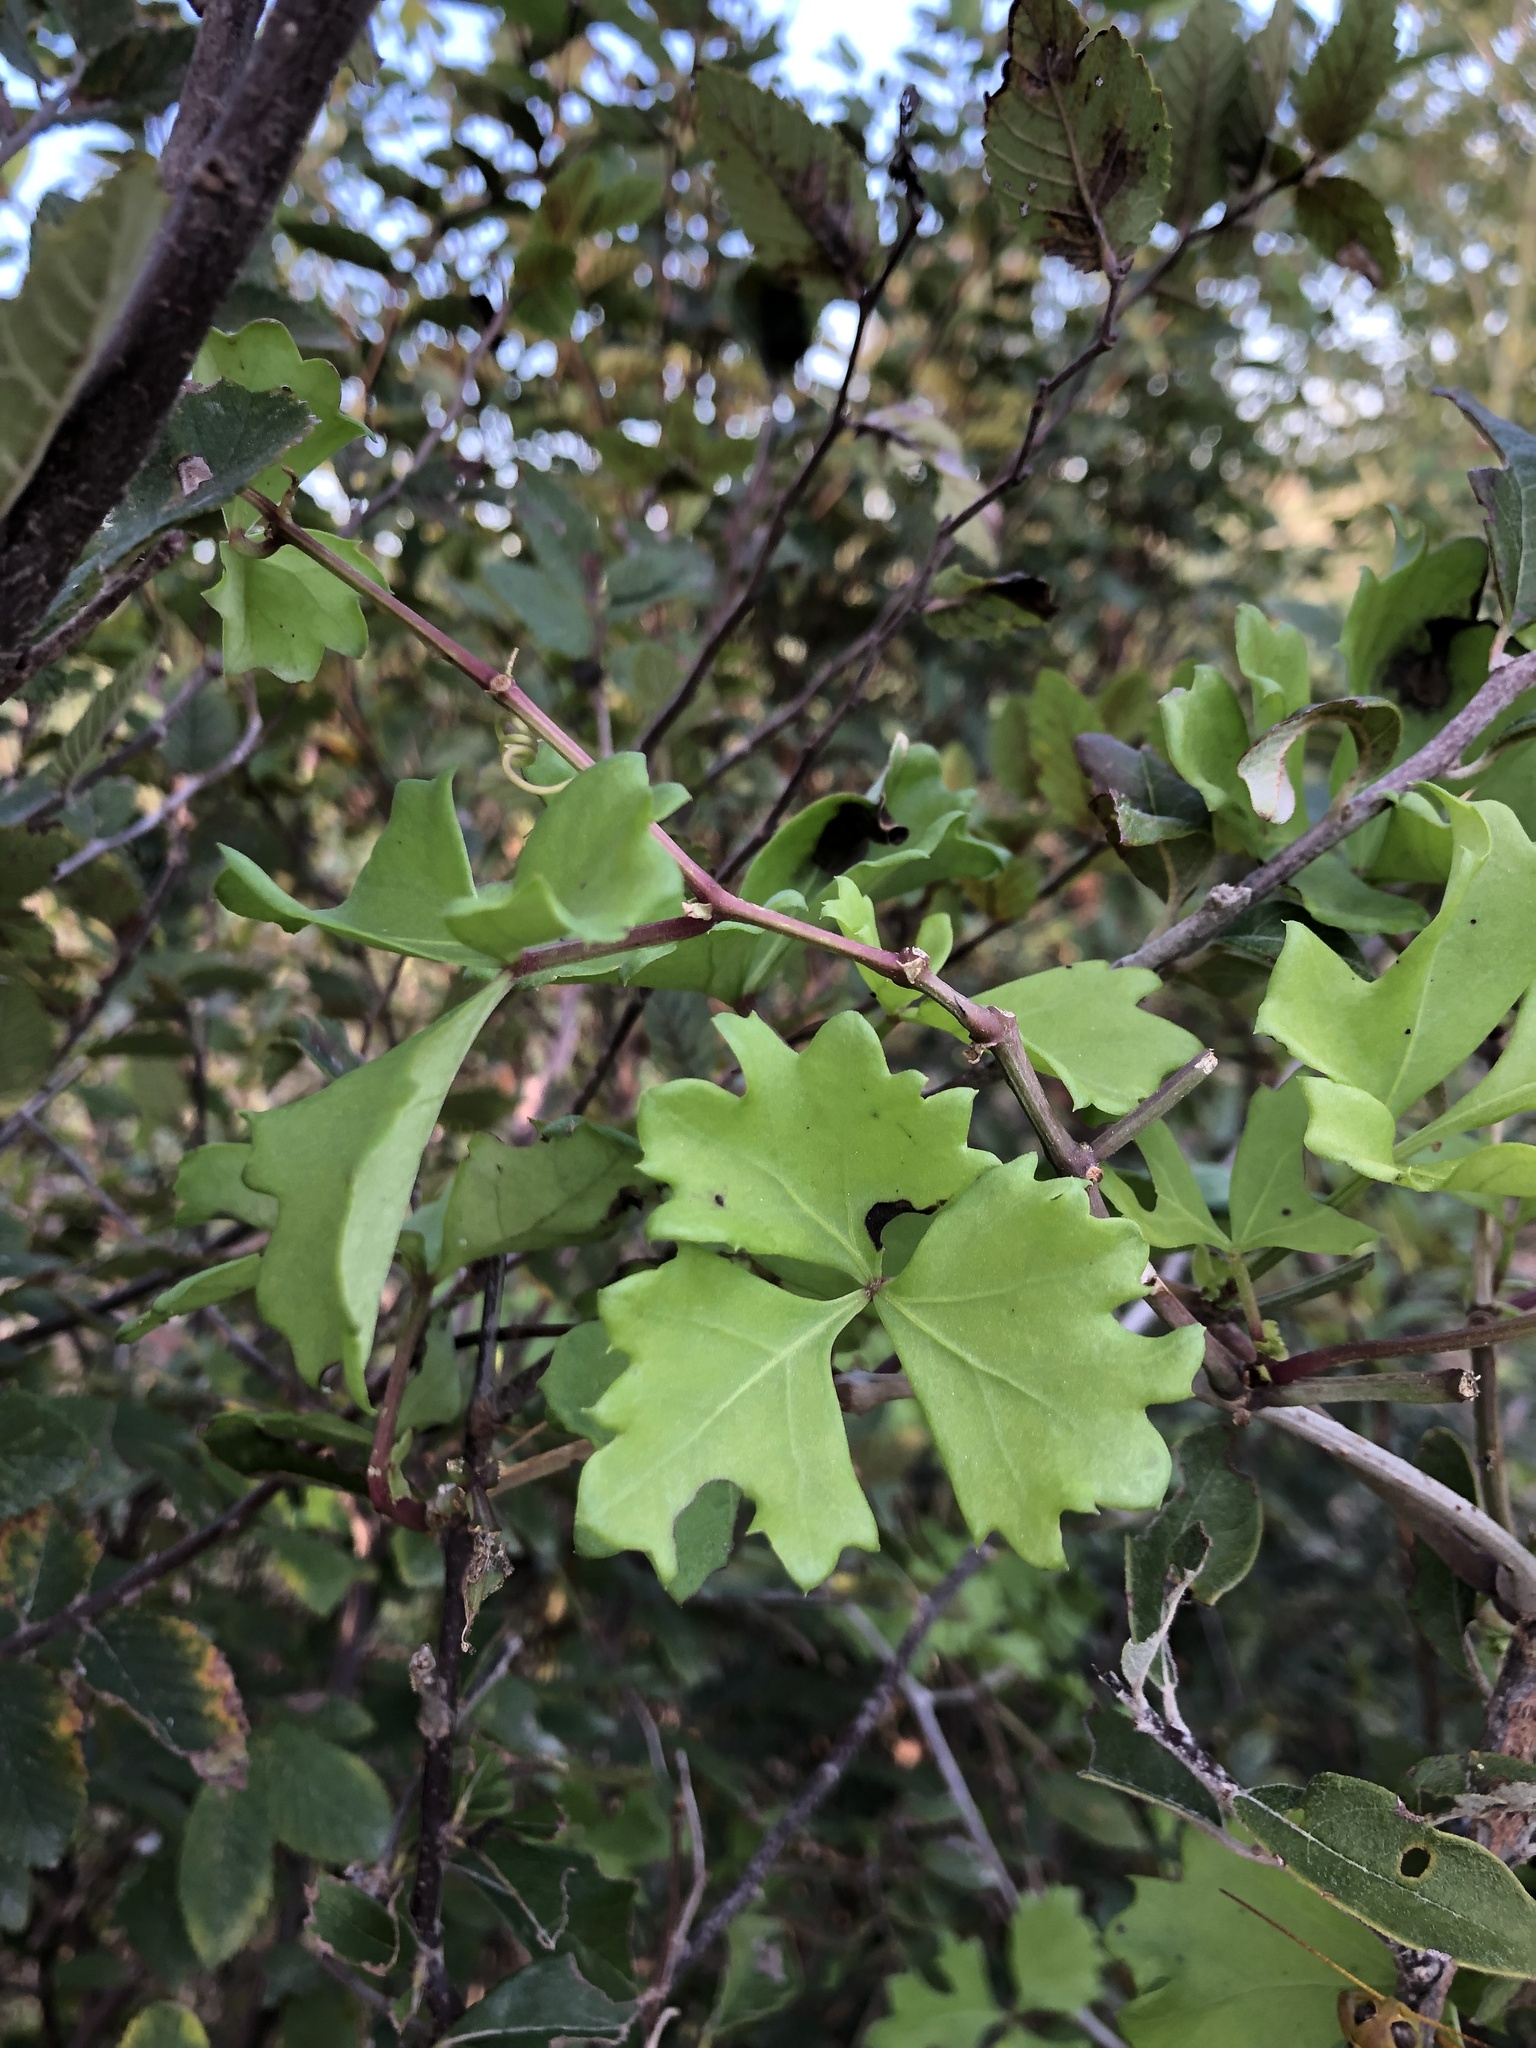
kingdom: Plantae
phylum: Tracheophyta
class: Magnoliopsida
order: Vitales
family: Vitaceae
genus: Cissus
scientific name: Cissus trifoliata
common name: Vine-sorrel
